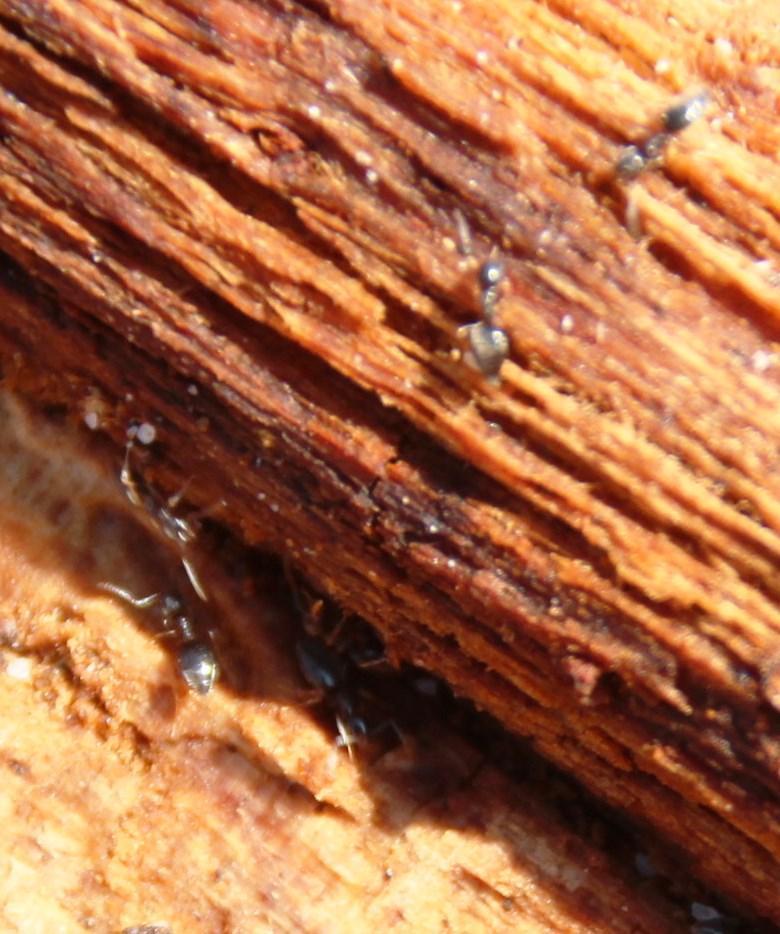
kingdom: Animalia
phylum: Arthropoda
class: Insecta
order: Hymenoptera
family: Formicidae
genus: Tapinoma
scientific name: Tapinoma pallipes
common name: Ant
